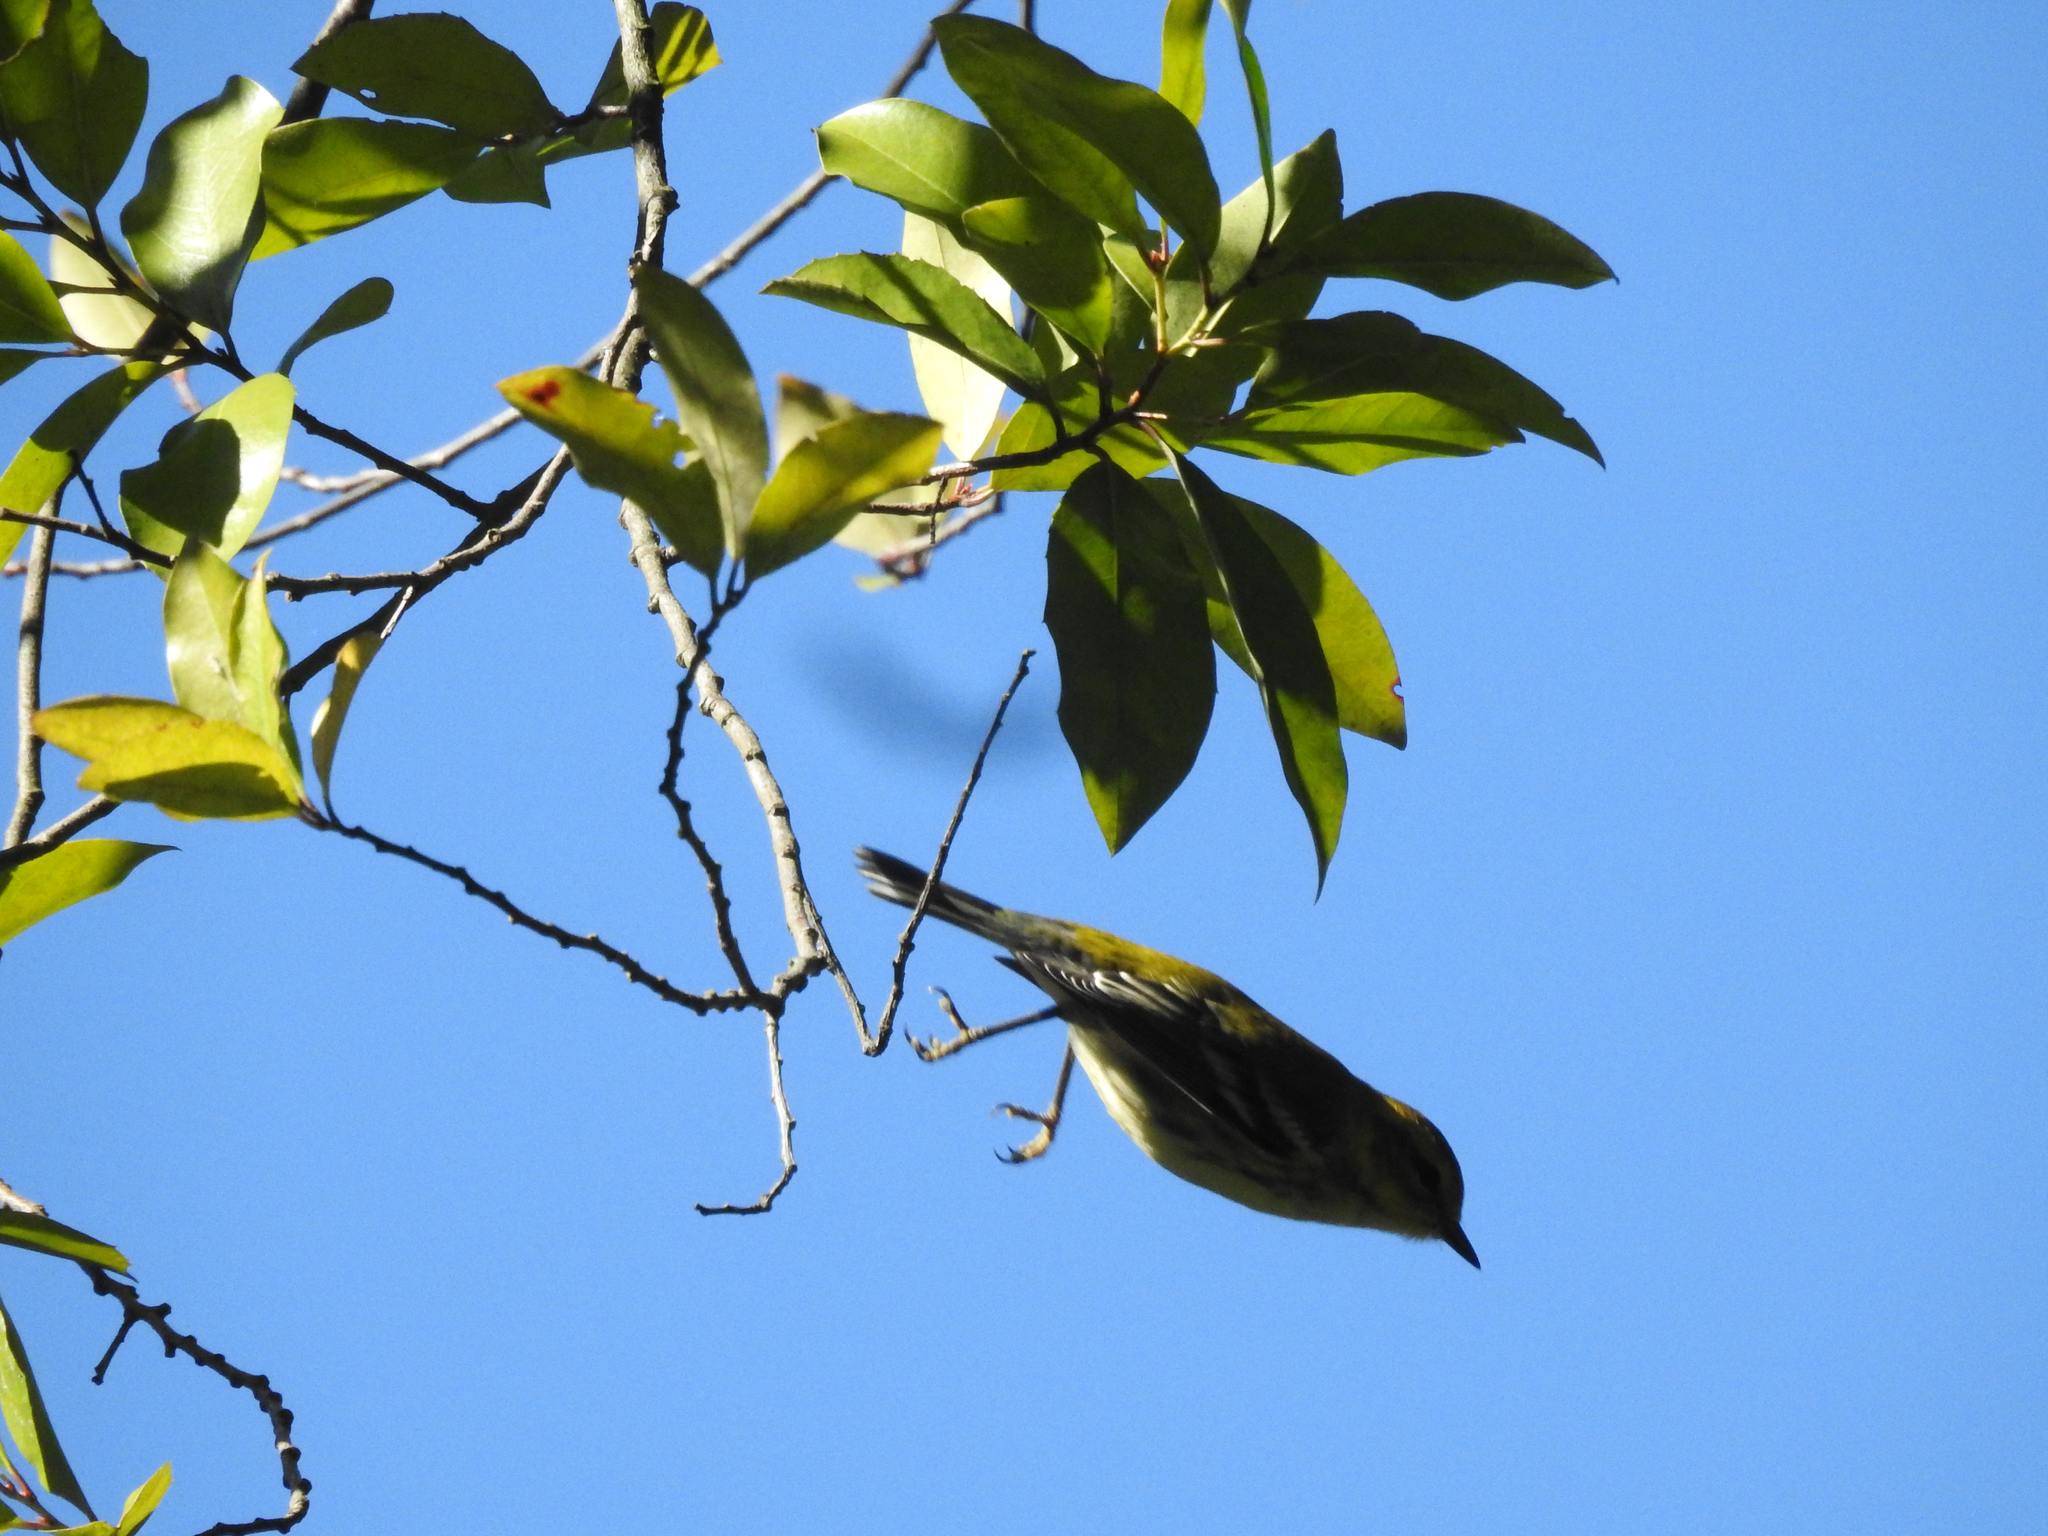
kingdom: Animalia
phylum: Chordata
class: Aves
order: Passeriformes
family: Parulidae
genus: Setophaga
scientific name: Setophaga virens
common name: Black-throated green warbler
